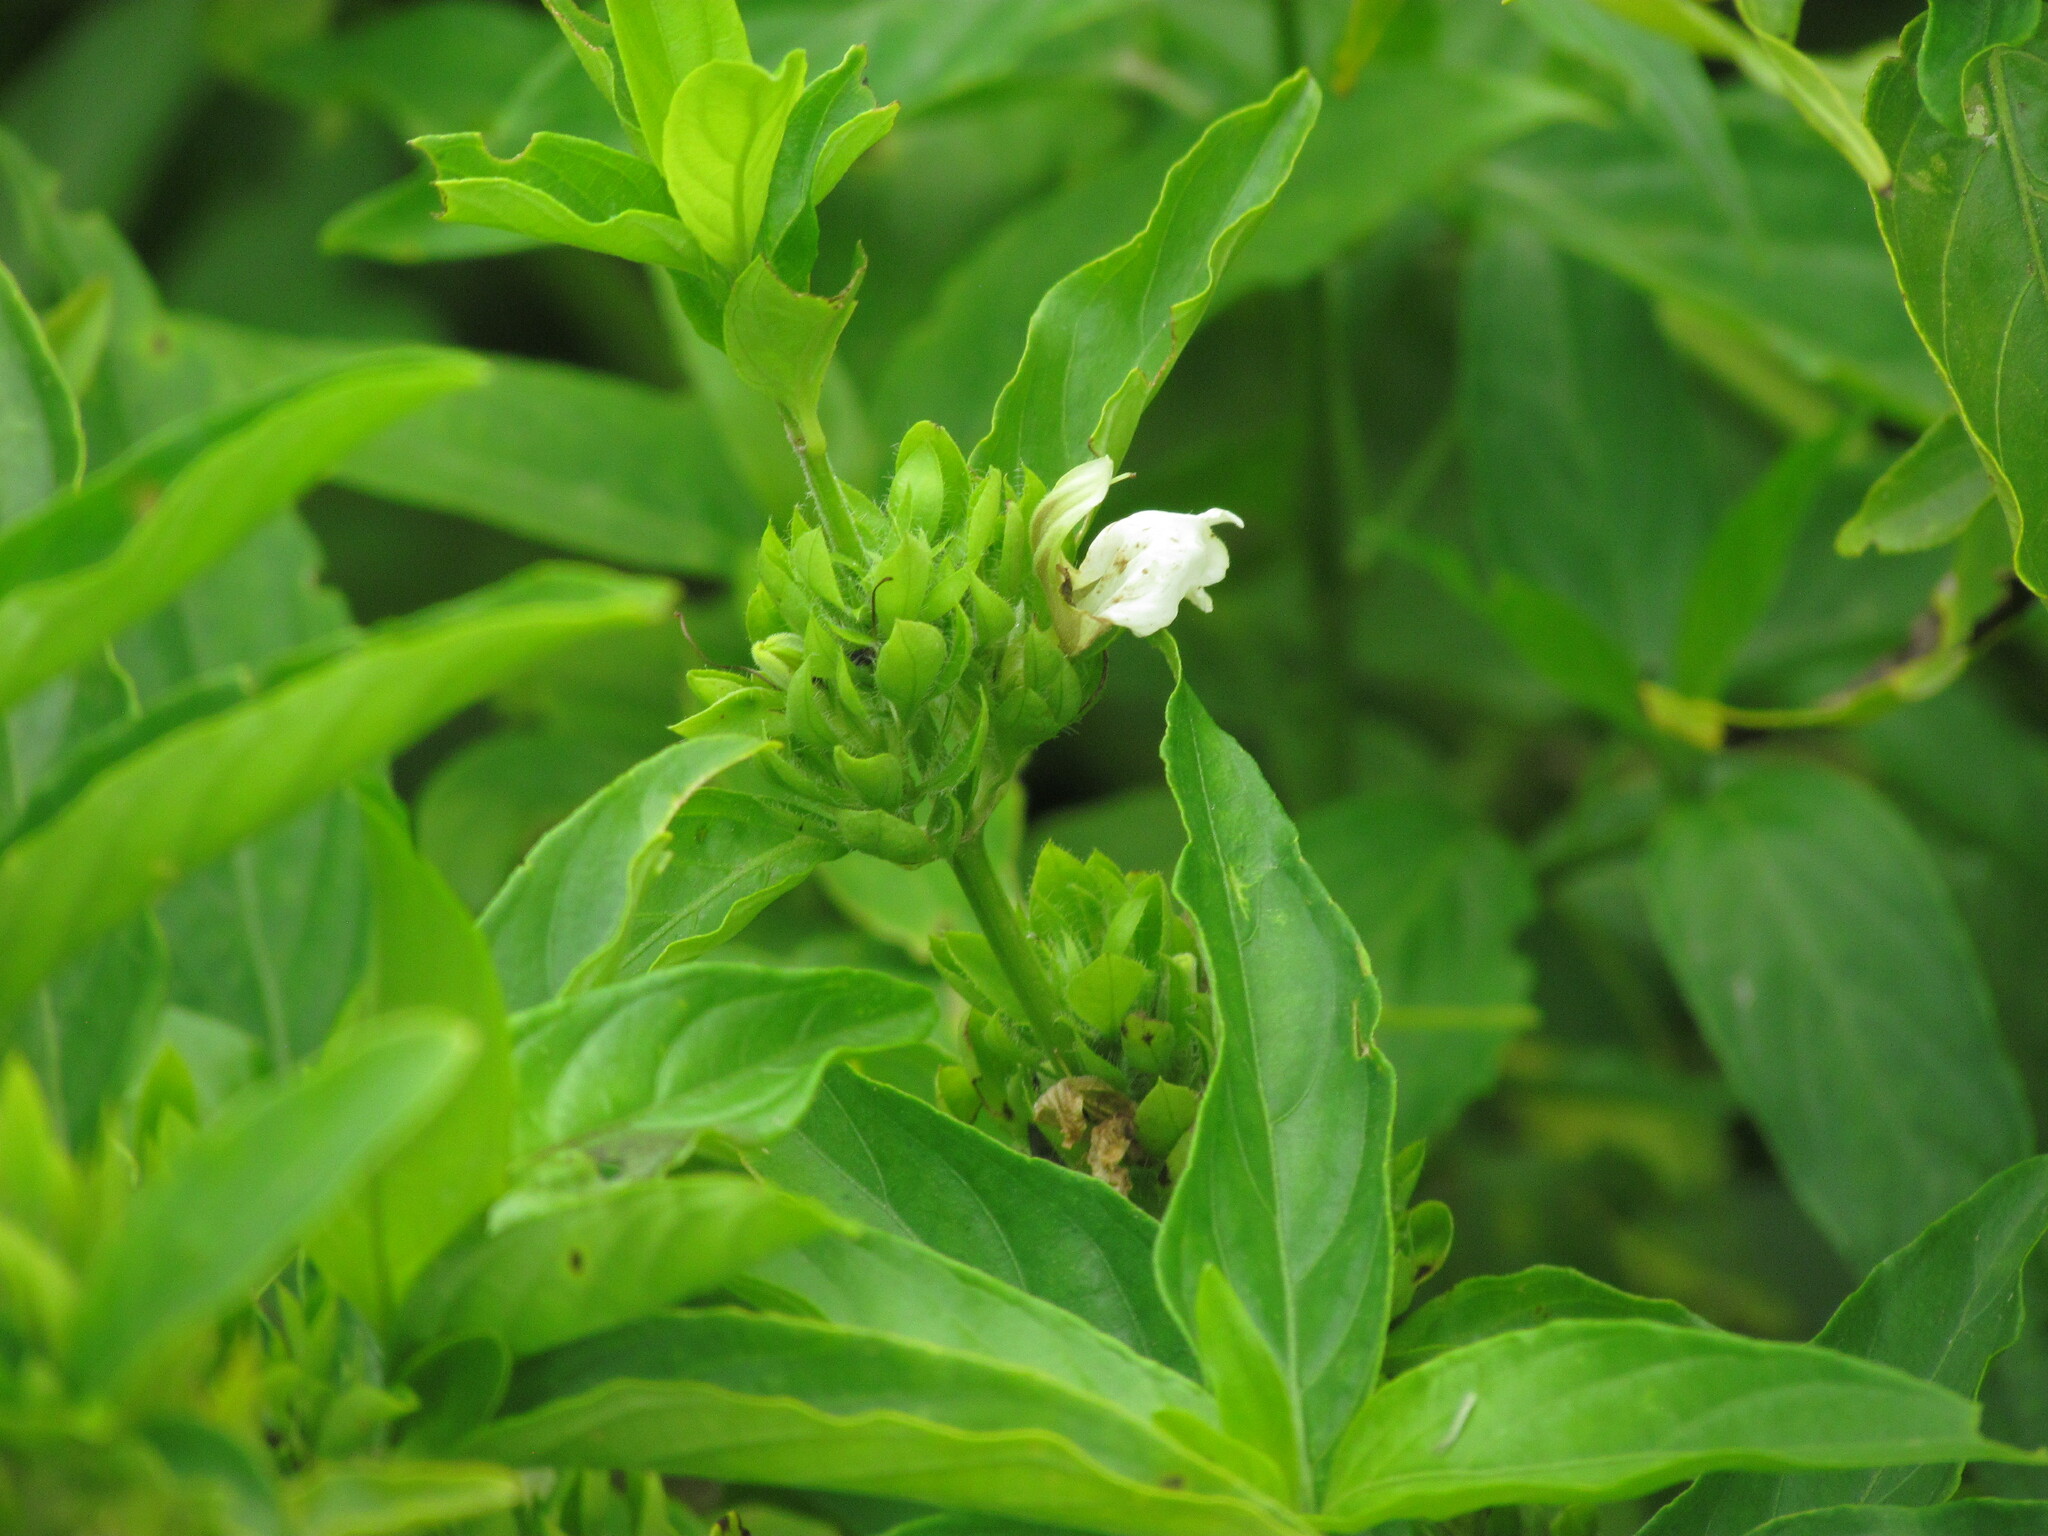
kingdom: Plantae
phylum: Tracheophyta
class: Magnoliopsida
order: Lamiales
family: Acanthaceae
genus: Poikilacanthus
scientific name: Poikilacanthus glandulosus
